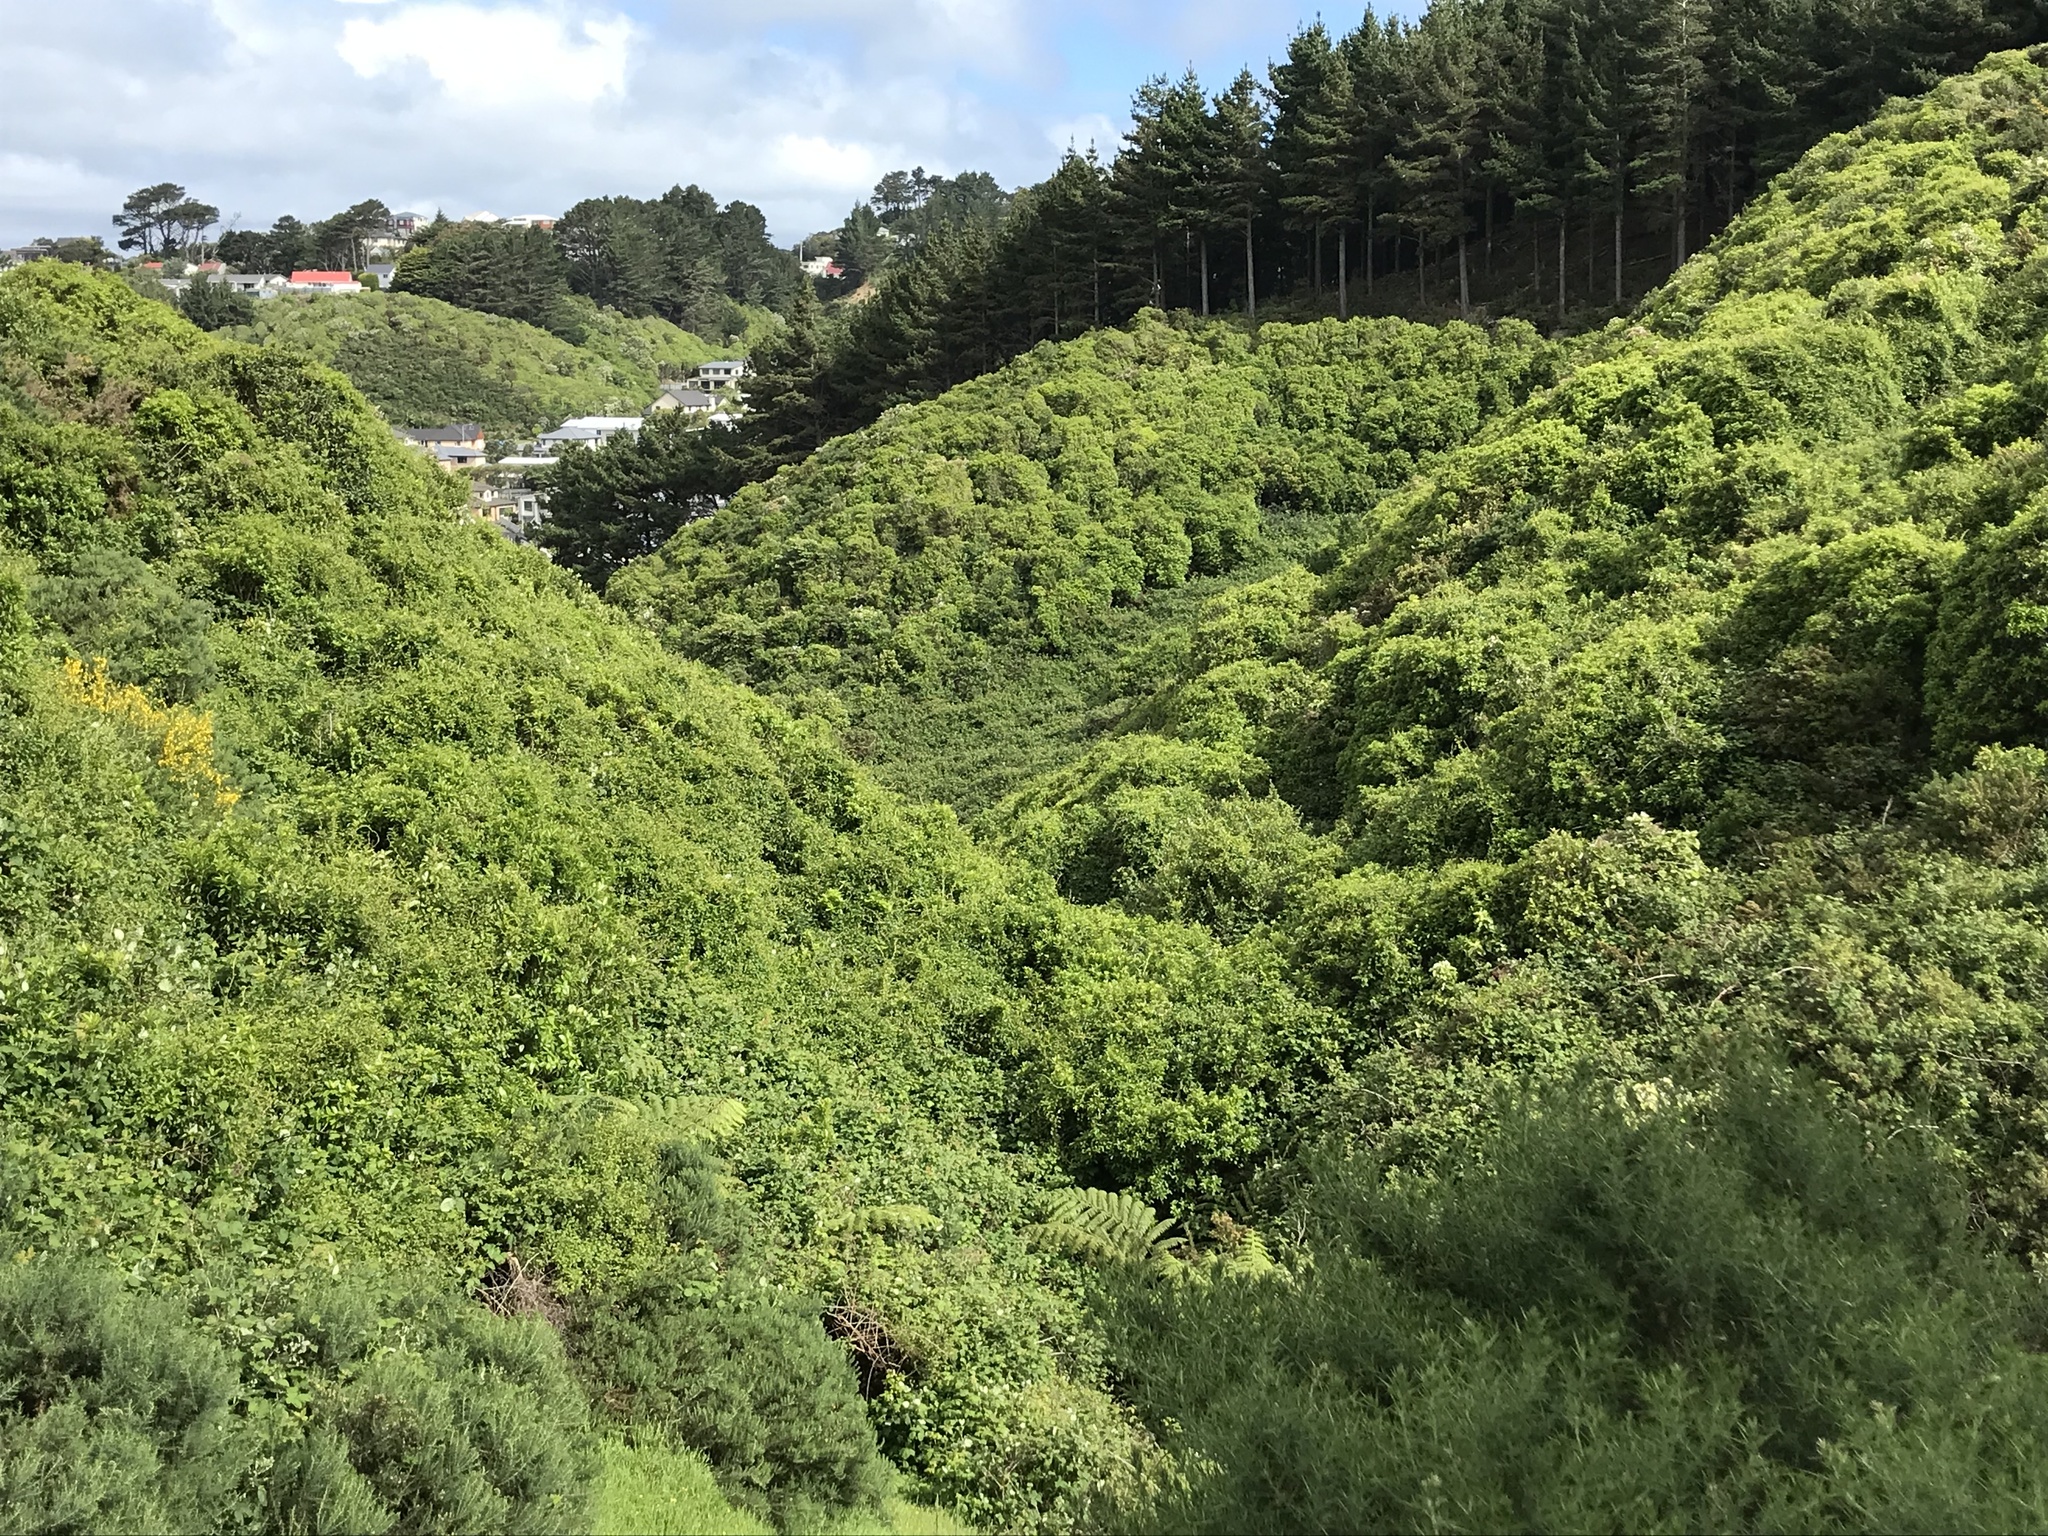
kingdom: Plantae
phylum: Tracheophyta
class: Magnoliopsida
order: Caryophyllales
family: Polygonaceae
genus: Muehlenbeckia
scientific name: Muehlenbeckia australis
